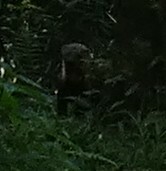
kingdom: Animalia
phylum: Chordata
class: Mammalia
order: Carnivora
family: Mustelidae
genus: Eira
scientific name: Eira barbara
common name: Tayra
